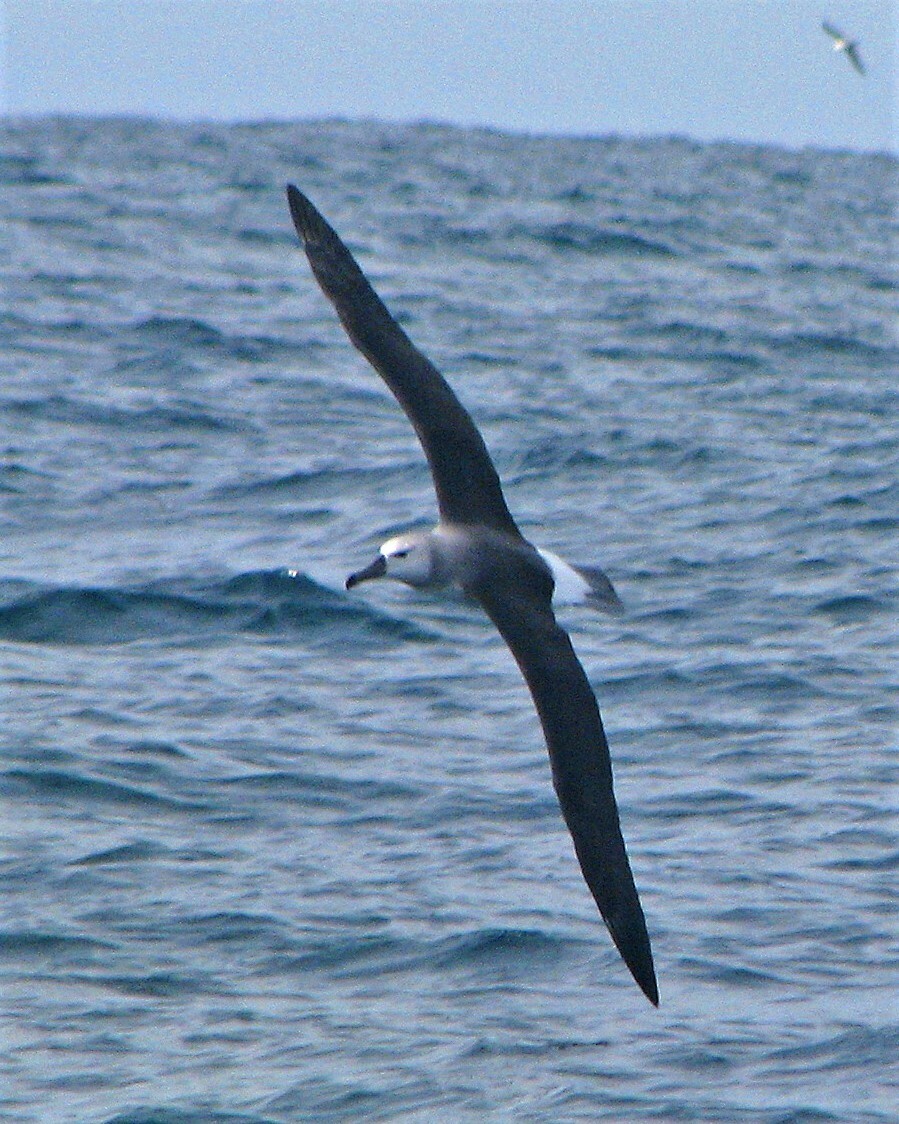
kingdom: Animalia
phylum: Chordata
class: Aves
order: Procellariiformes
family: Diomedeidae
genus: Thalassarche
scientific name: Thalassarche chlororhynchos
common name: Atlantic yellow-nosed albatross
